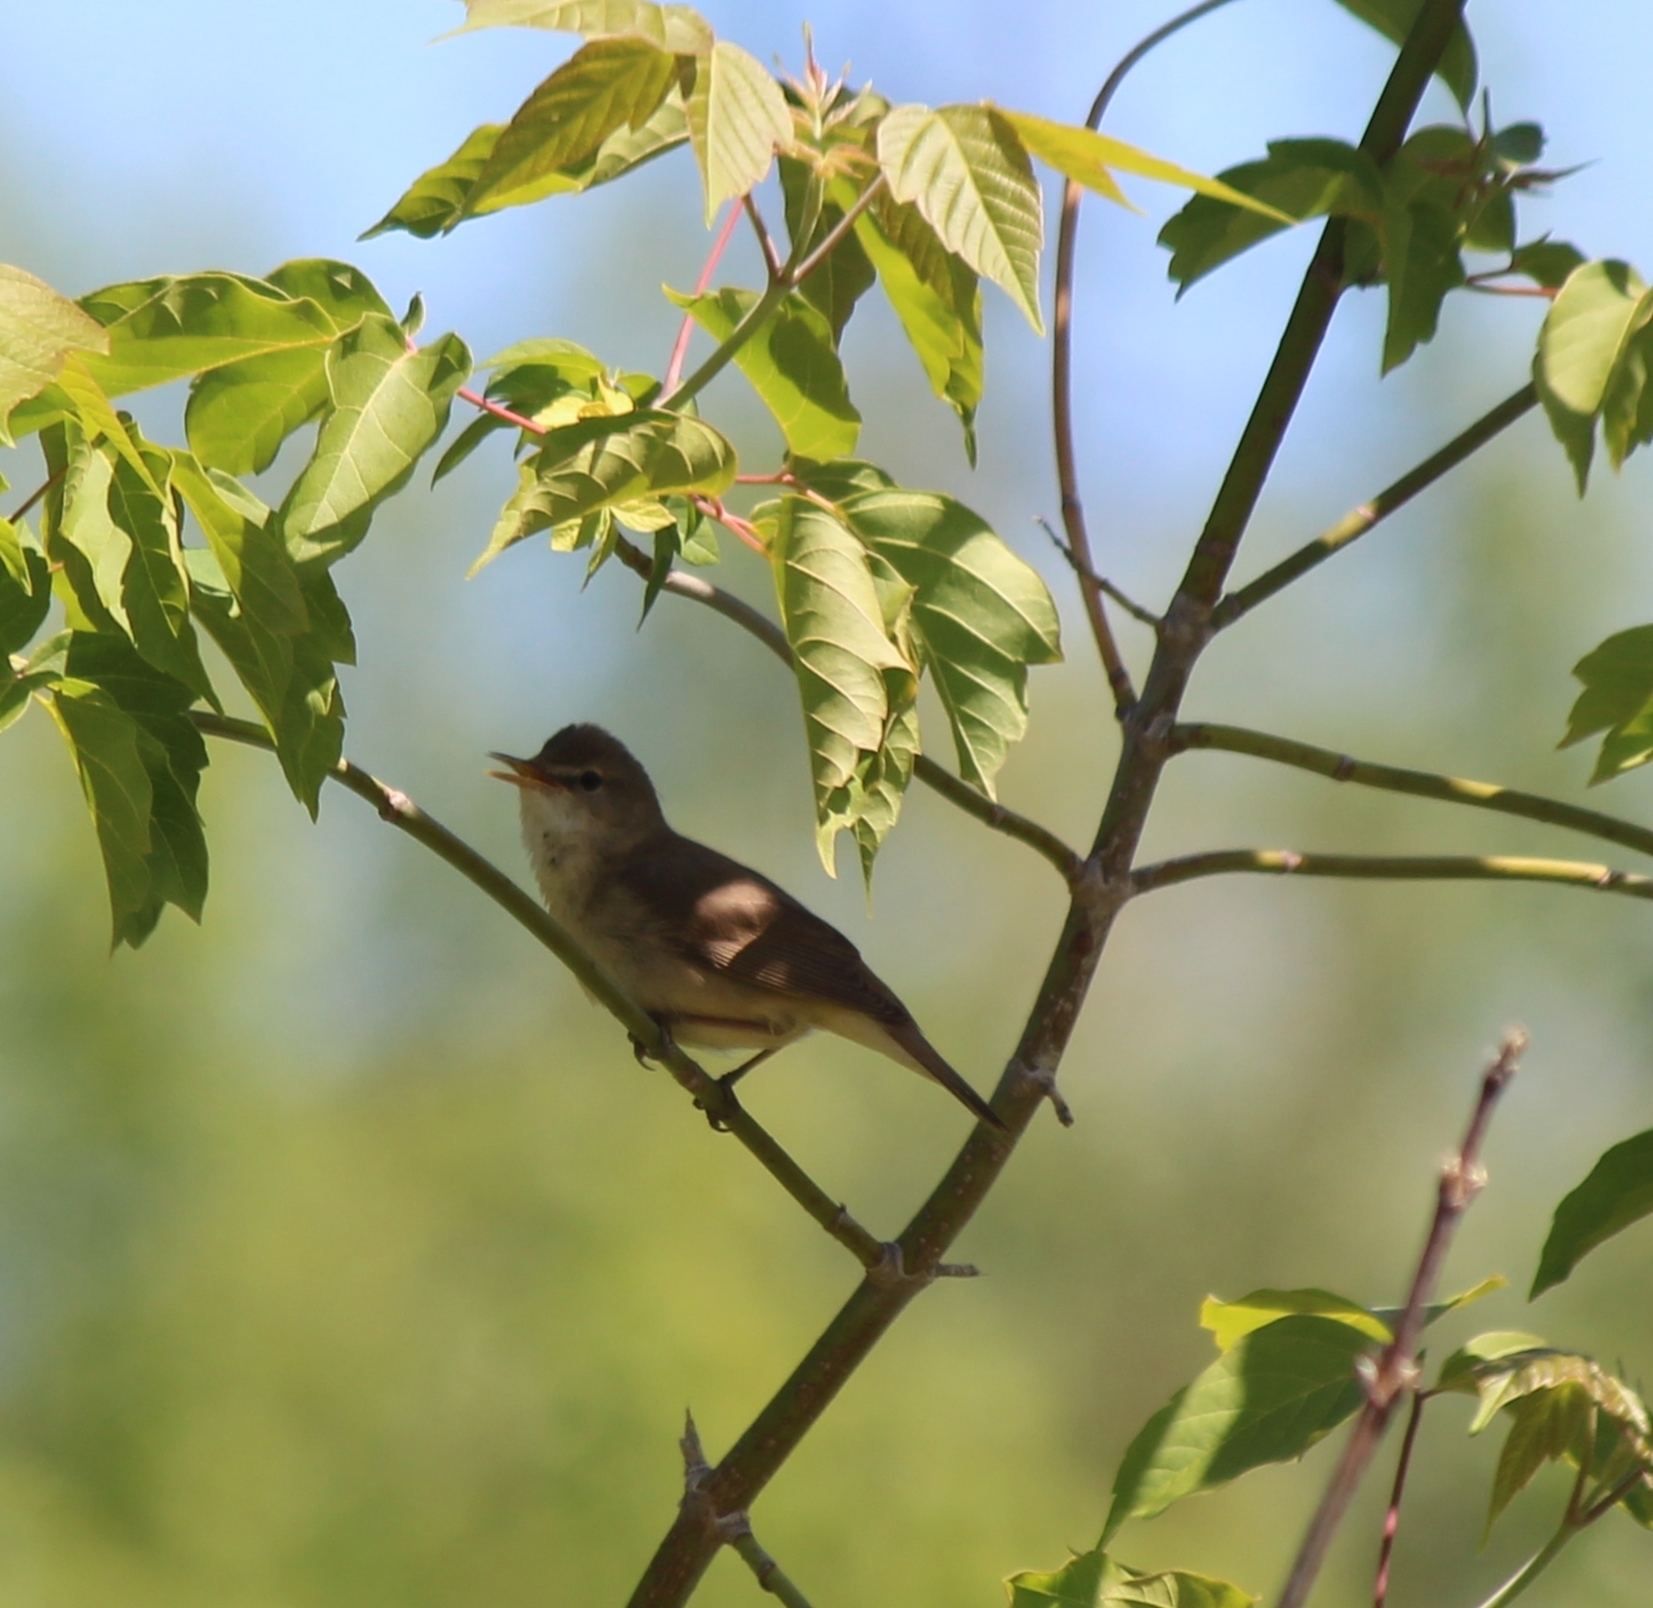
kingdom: Animalia
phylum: Chordata
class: Aves
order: Passeriformes
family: Acrocephalidae
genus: Acrocephalus
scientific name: Acrocephalus dumetorum
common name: Blyth's reed warbler
